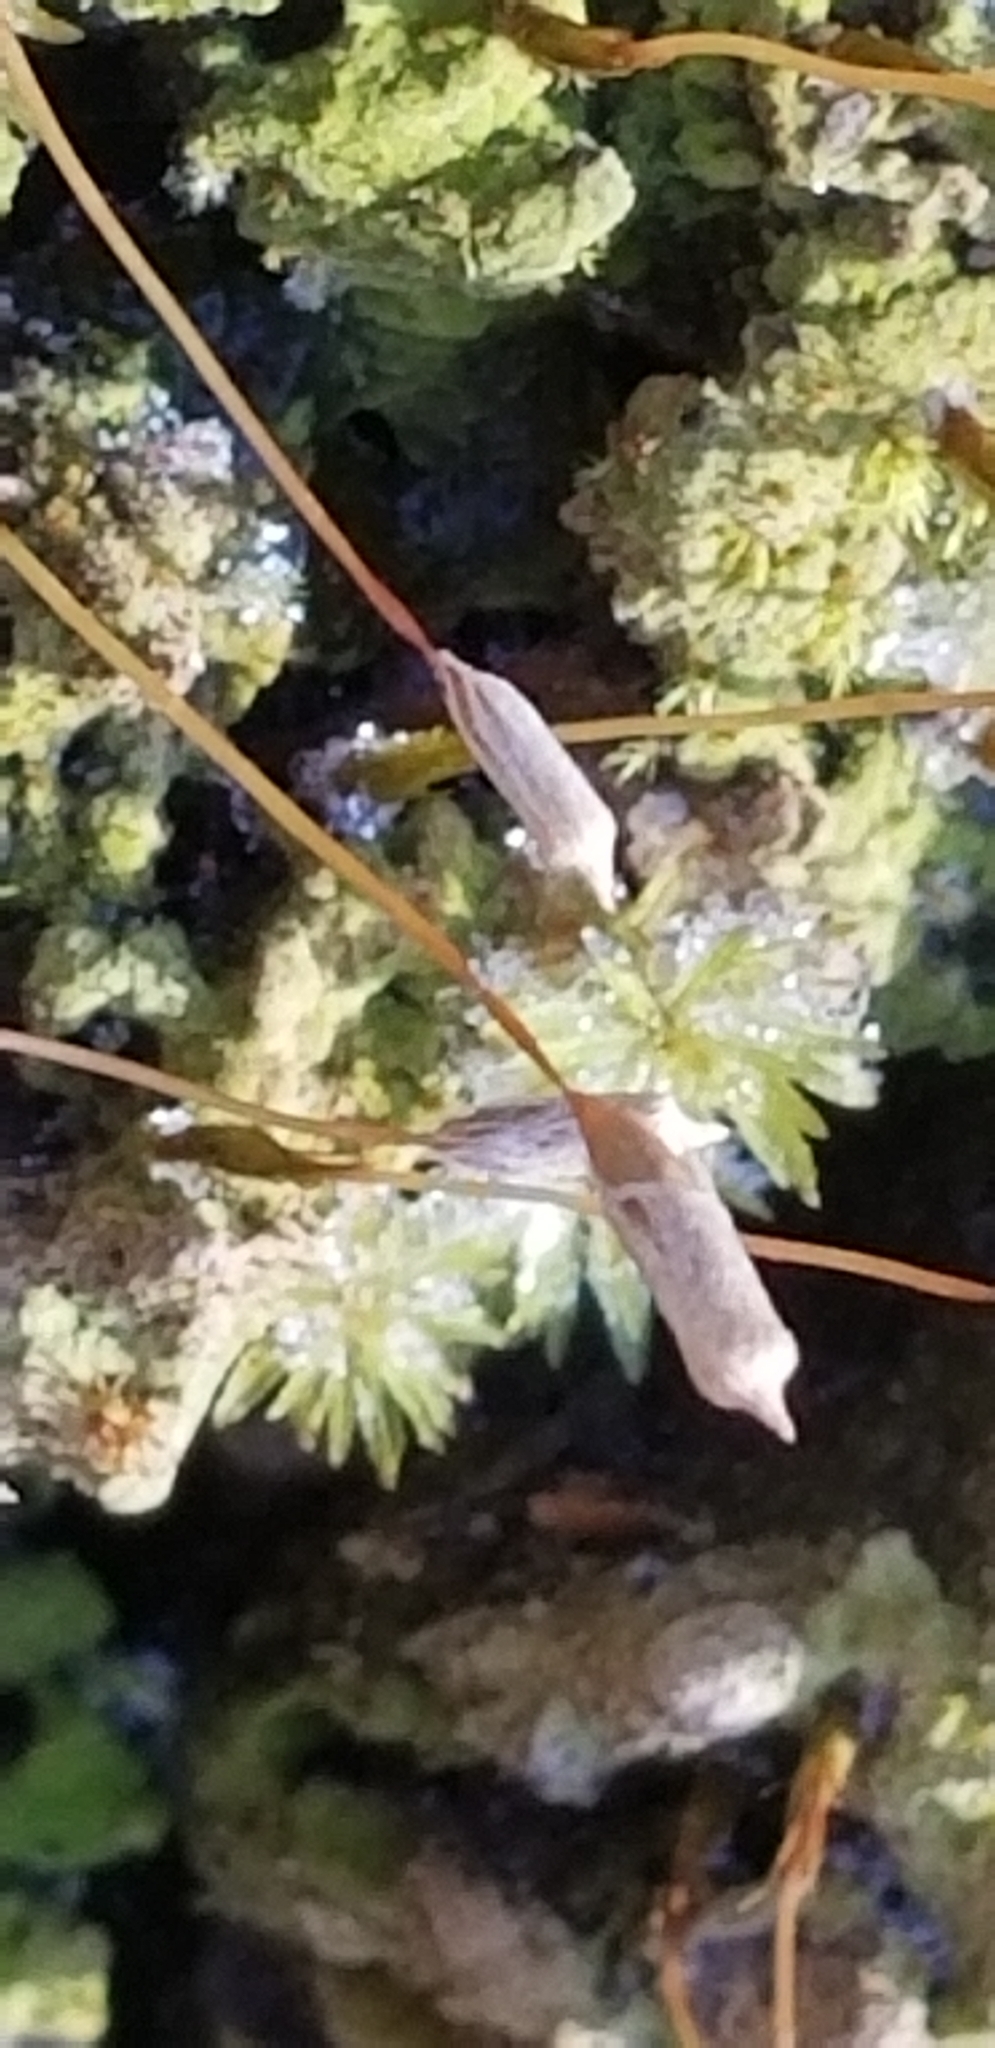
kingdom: Plantae
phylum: Bryophyta
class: Polytrichopsida
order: Polytrichales
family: Polytrichaceae
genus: Pogonatum
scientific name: Pogonatum pensilvanicum
